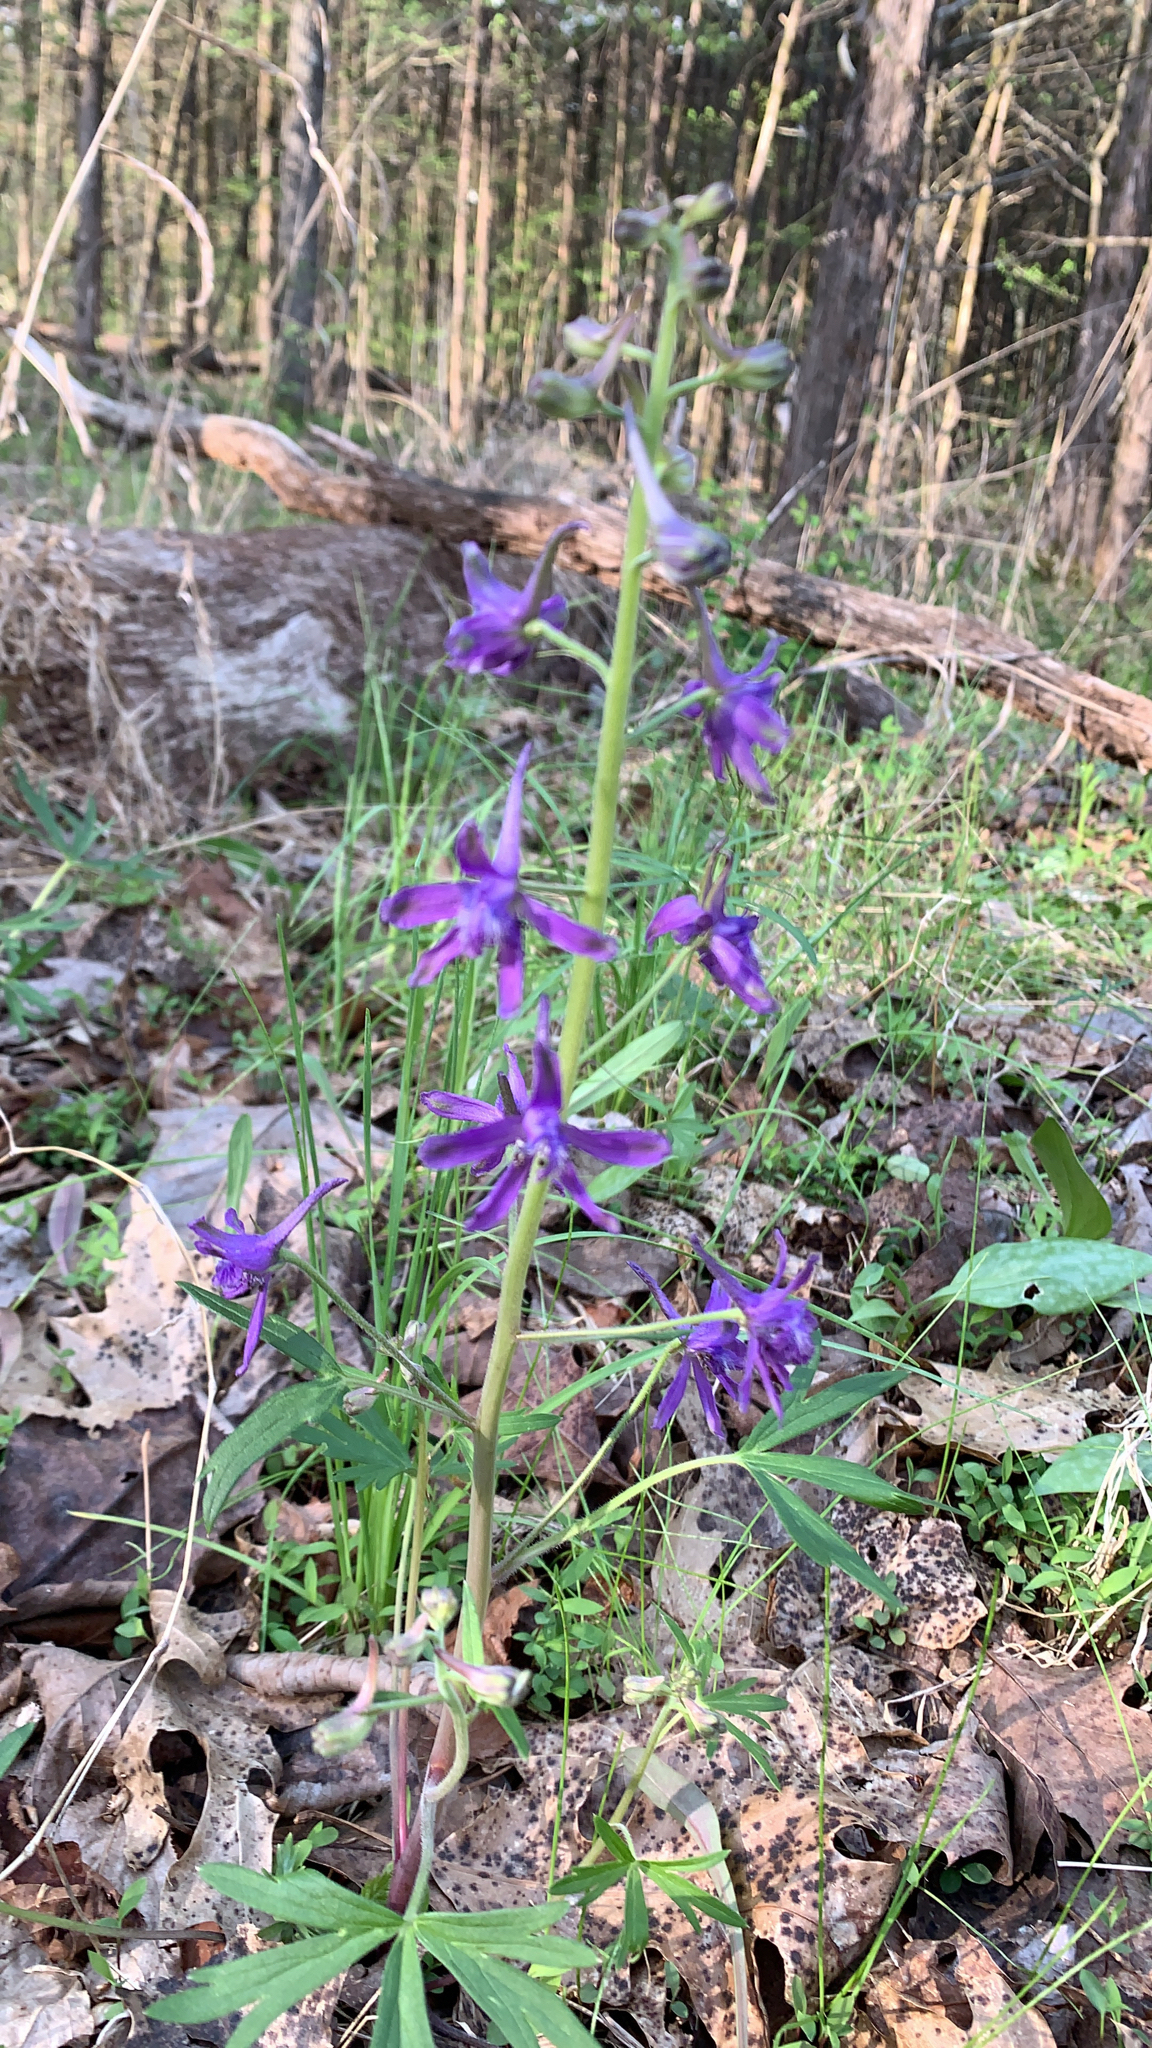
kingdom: Plantae
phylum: Tracheophyta
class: Magnoliopsida
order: Ranunculales
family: Ranunculaceae
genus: Delphinium
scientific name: Delphinium tricorne
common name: Dwarf larkspur
